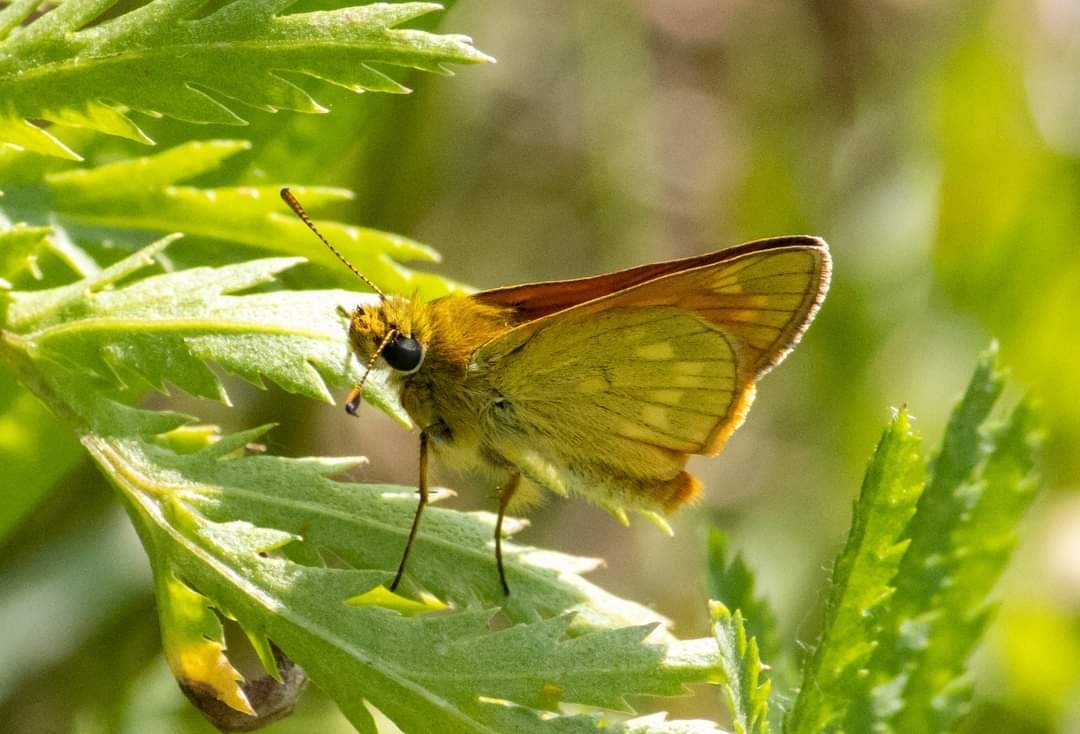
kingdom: Animalia
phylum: Arthropoda
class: Insecta
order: Lepidoptera
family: Hesperiidae
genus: Ochlodes
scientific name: Ochlodes venata
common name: Large skipper
